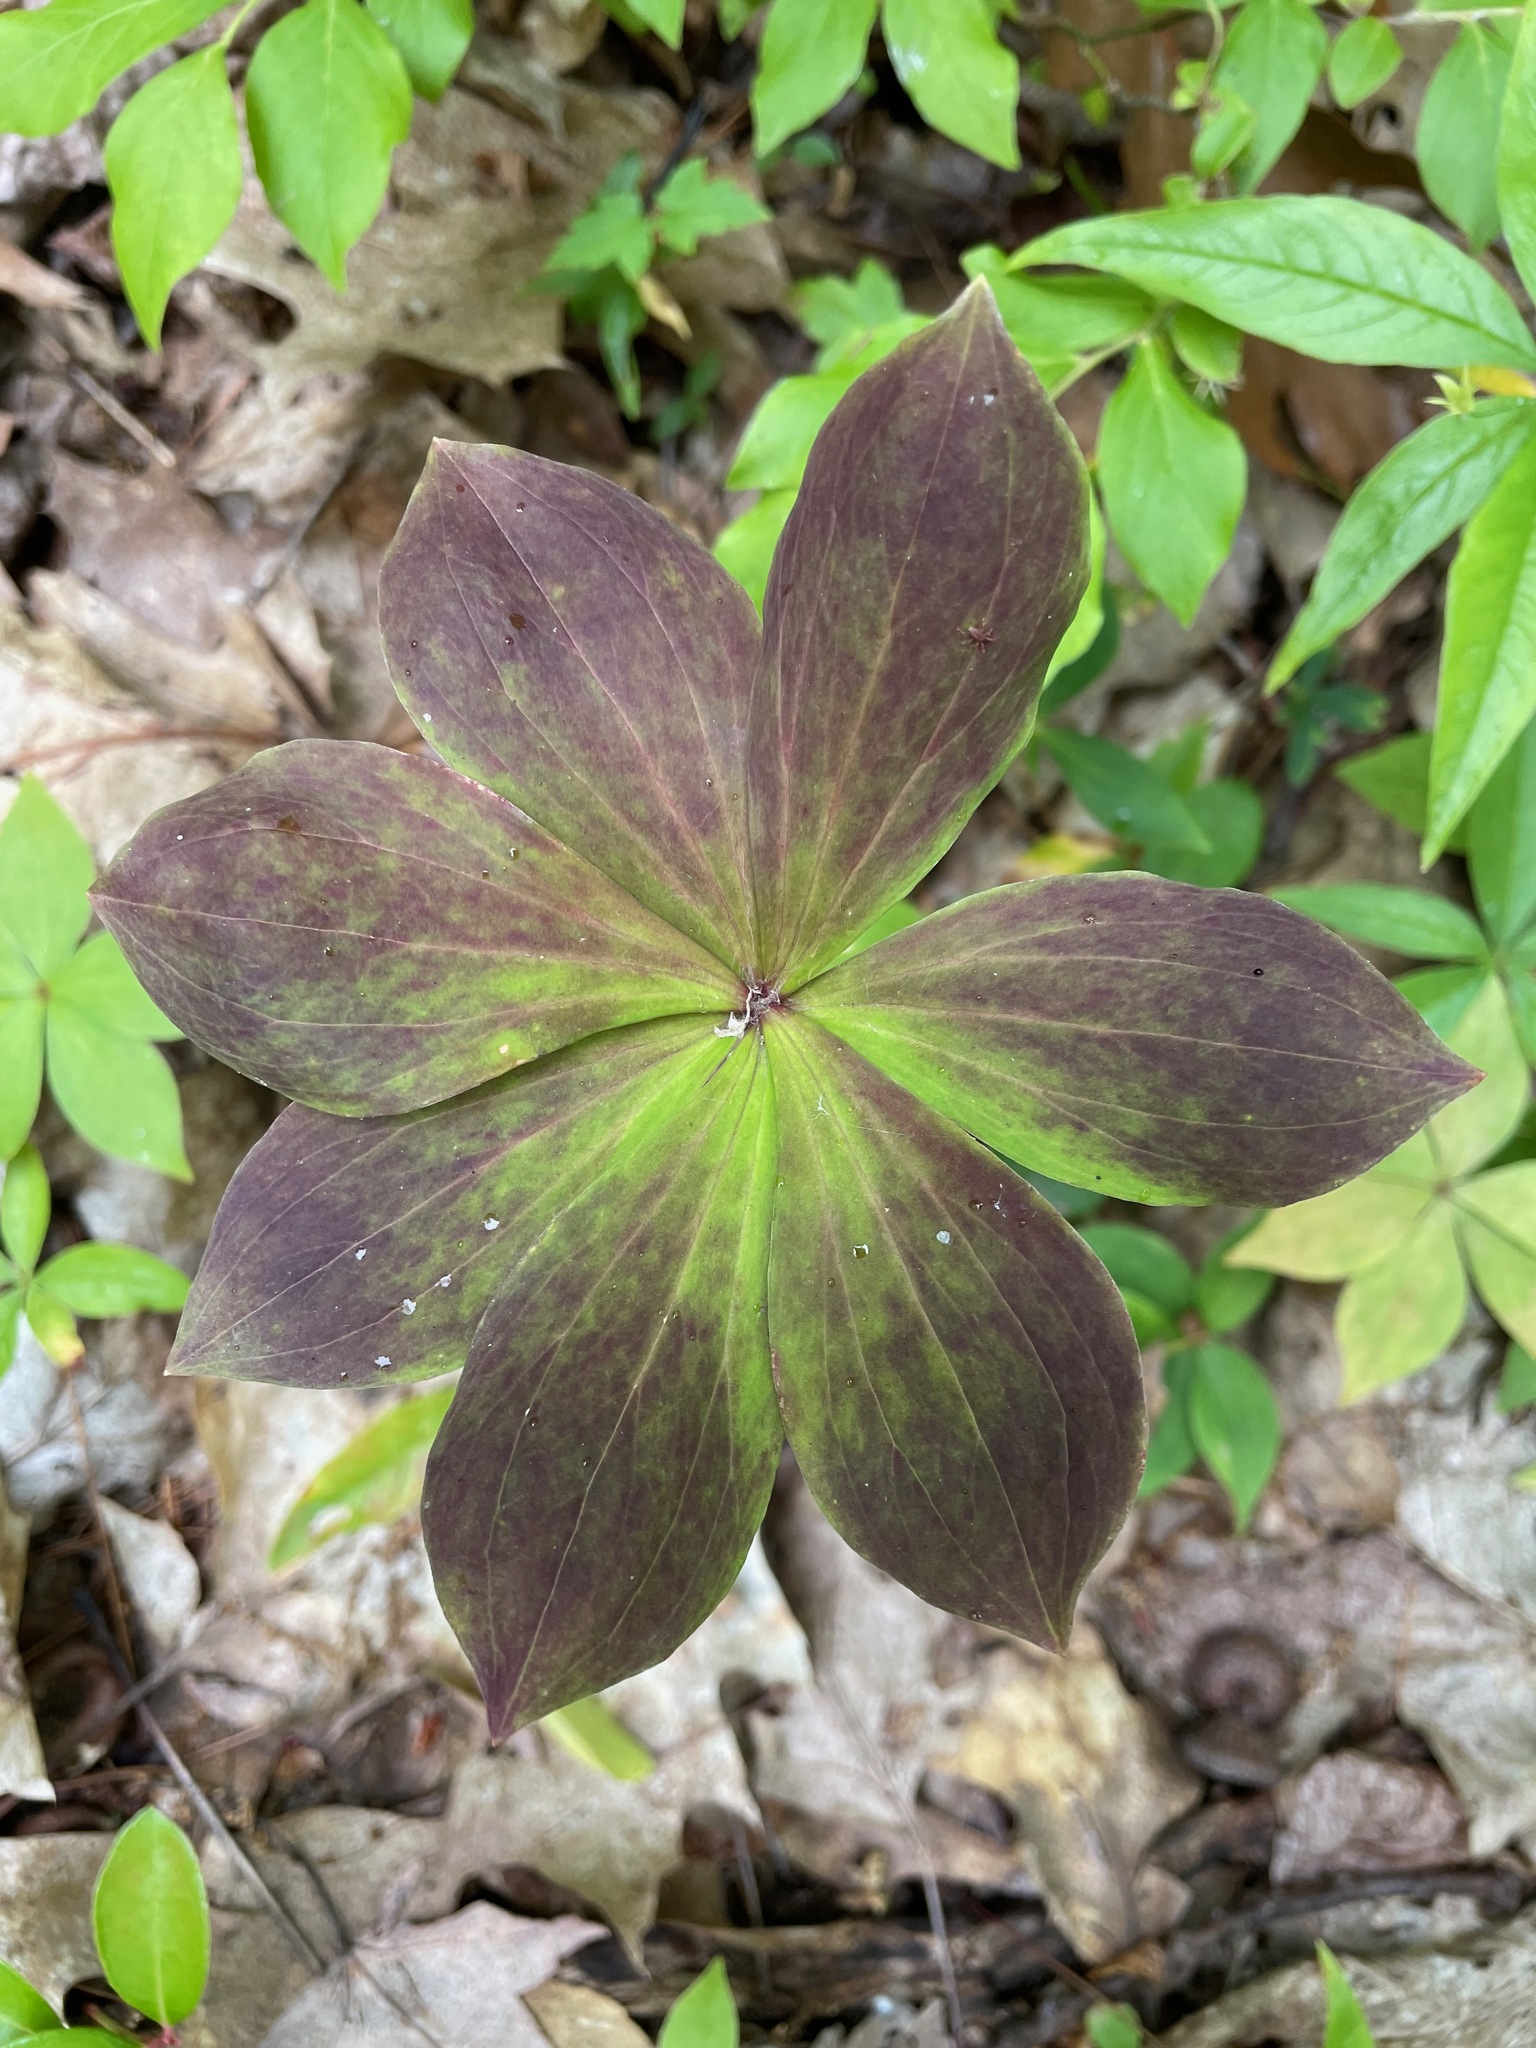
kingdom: Plantae
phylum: Tracheophyta
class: Liliopsida
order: Liliales
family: Liliaceae
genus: Medeola
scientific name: Medeola virginiana
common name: Indian cucumber-root
